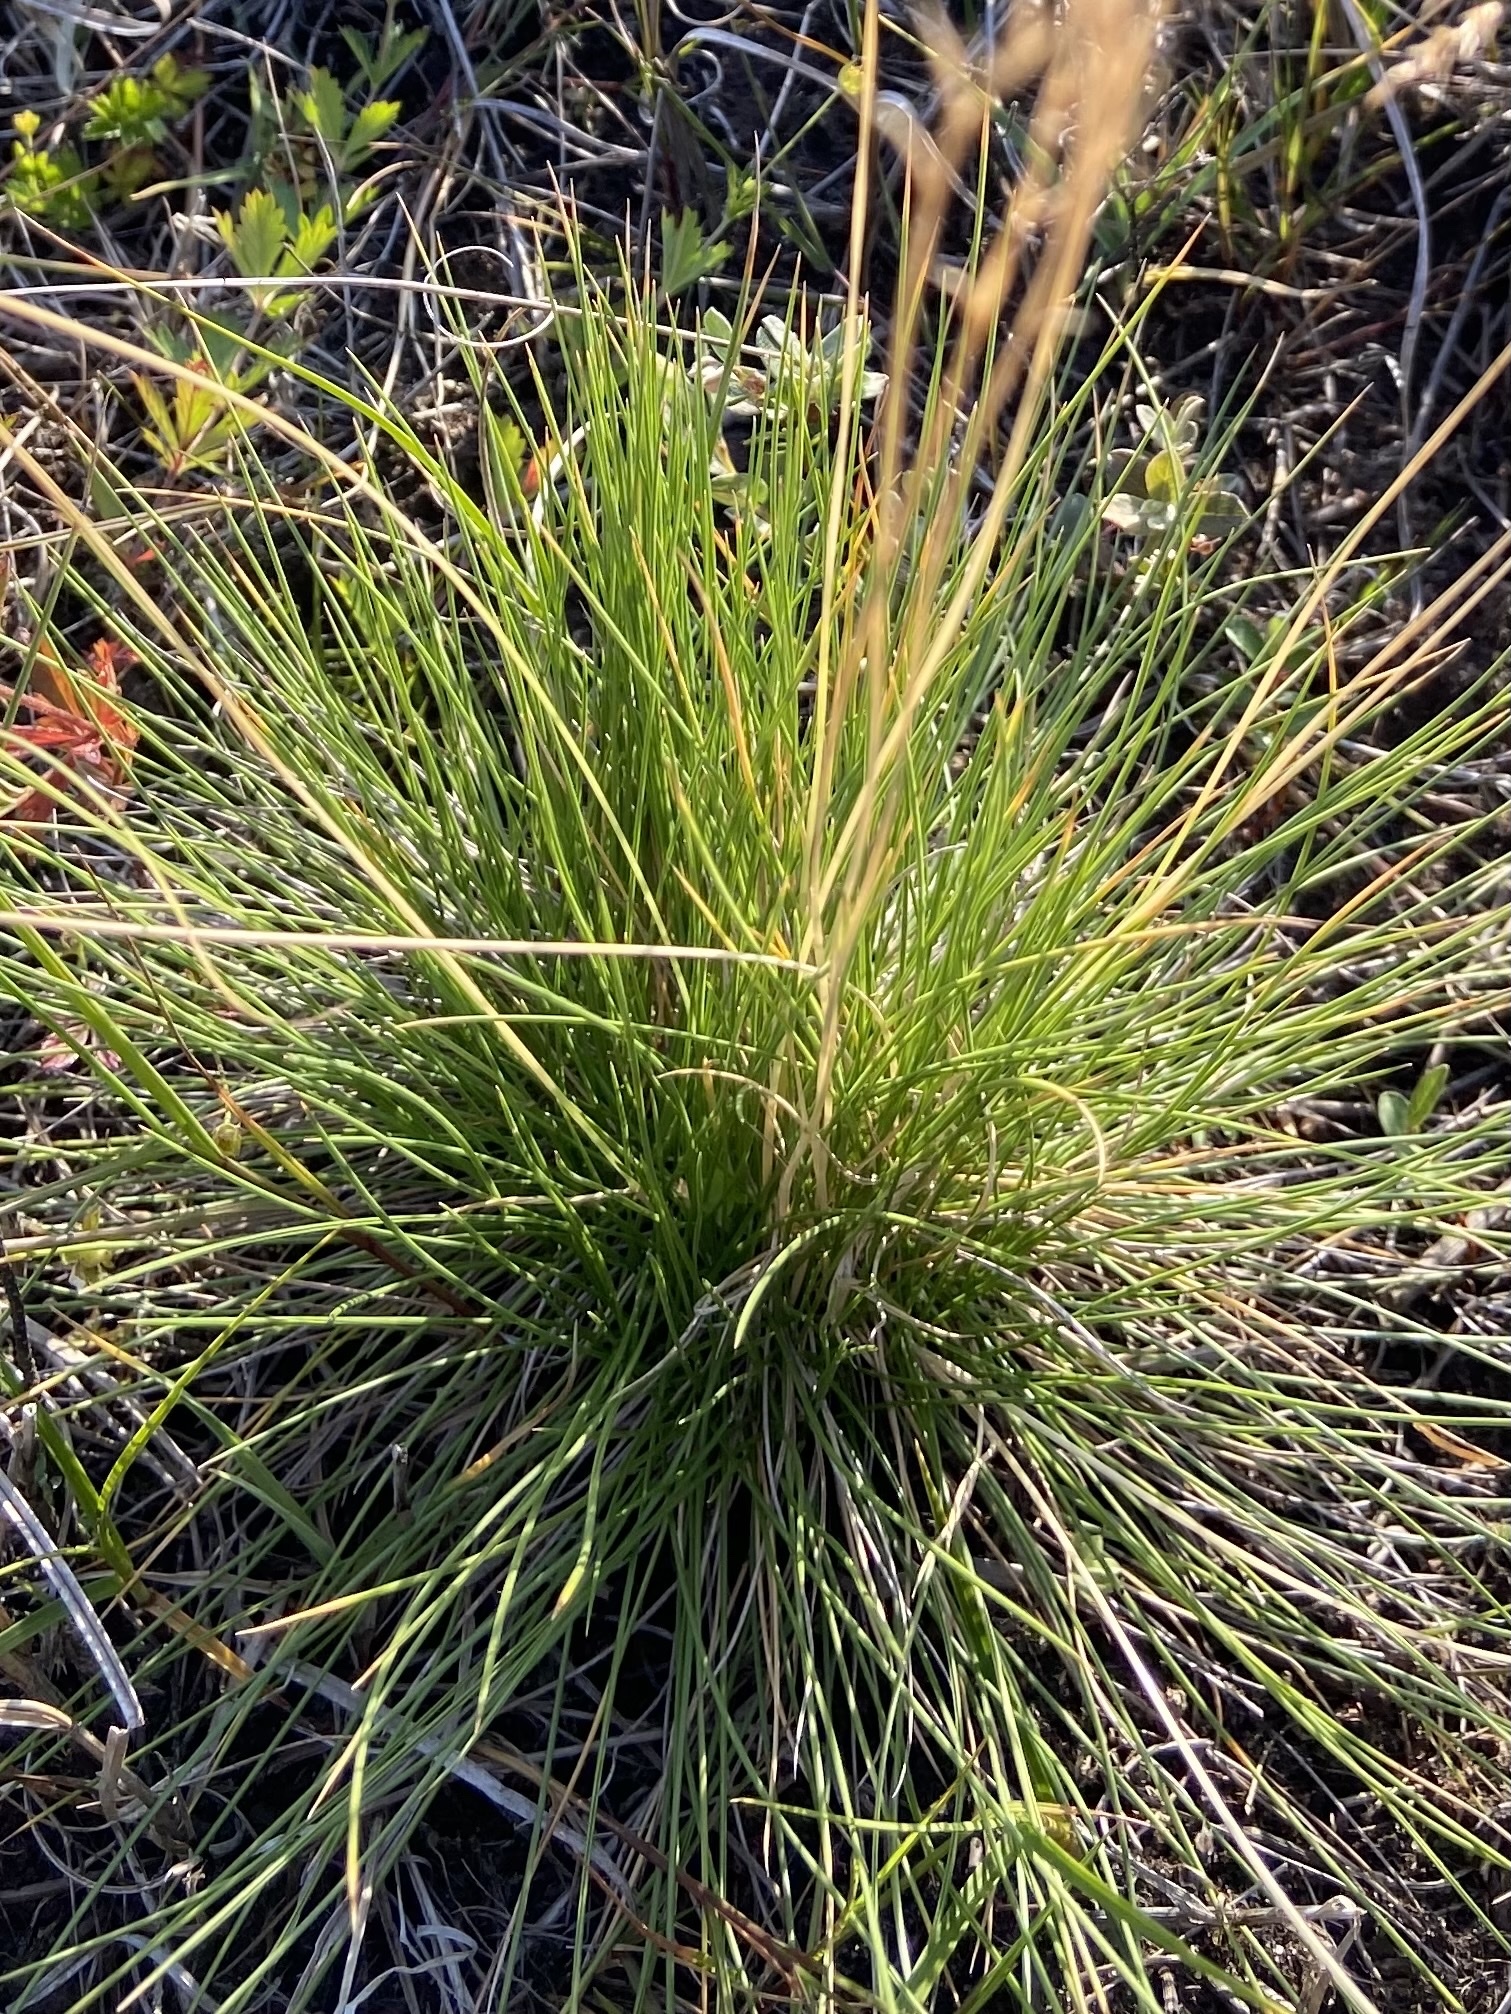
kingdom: Plantae
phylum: Tracheophyta
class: Liliopsida
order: Poales
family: Poaceae
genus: Nardus
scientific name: Nardus stricta
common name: Mat-grass
